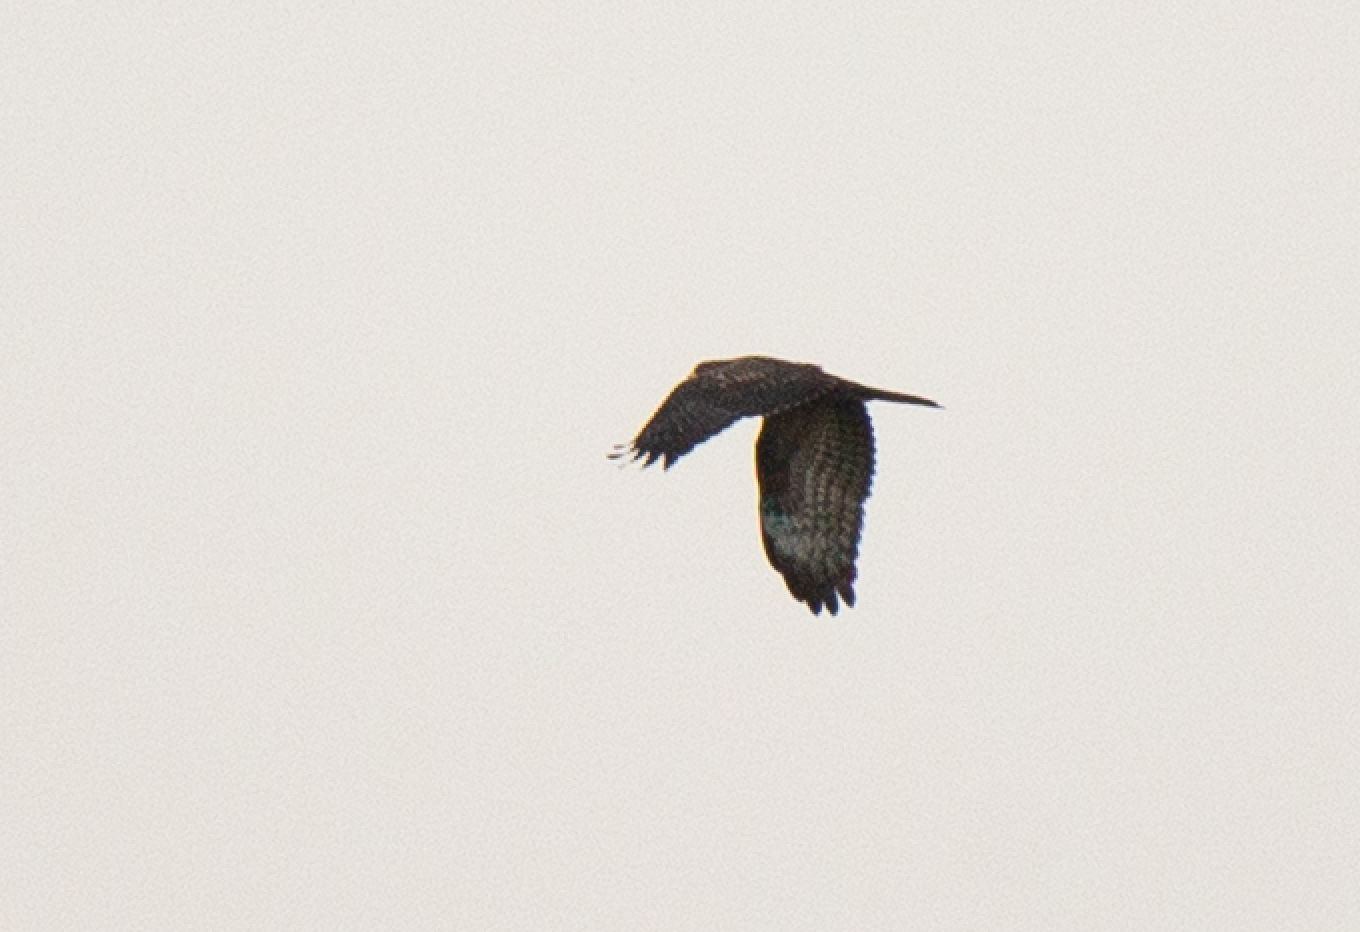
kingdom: Animalia
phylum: Chordata
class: Aves
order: Accipitriformes
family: Accipitridae
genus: Pernis
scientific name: Pernis apivorus
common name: European honey buzzard
